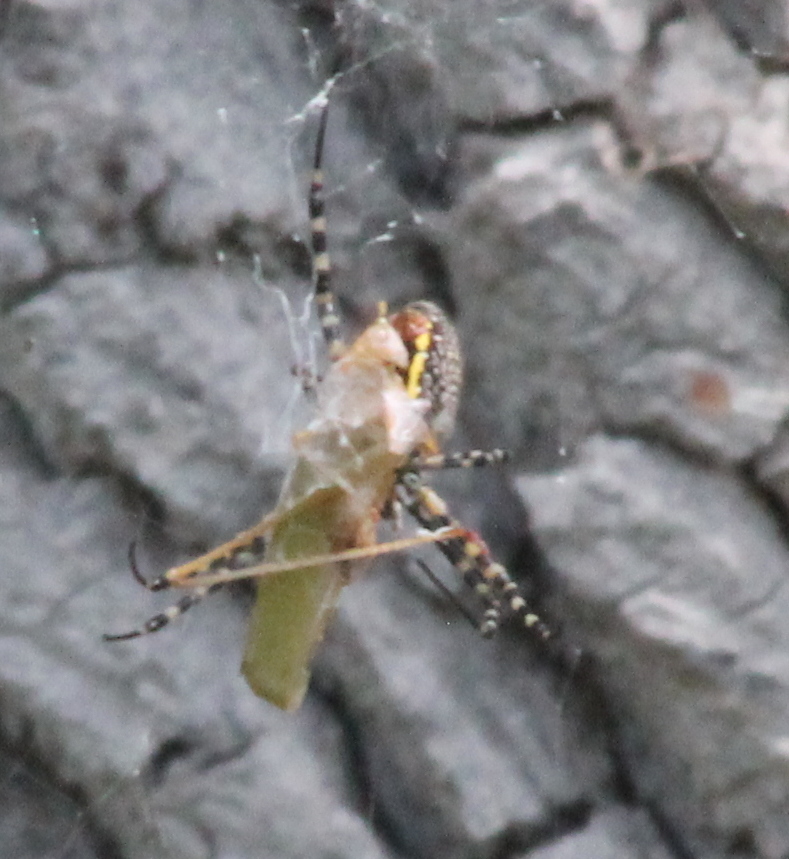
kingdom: Animalia
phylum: Arthropoda
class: Arachnida
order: Araneae
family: Araneidae
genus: Argiope
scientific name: Argiope trifasciata
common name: Banded garden spider
